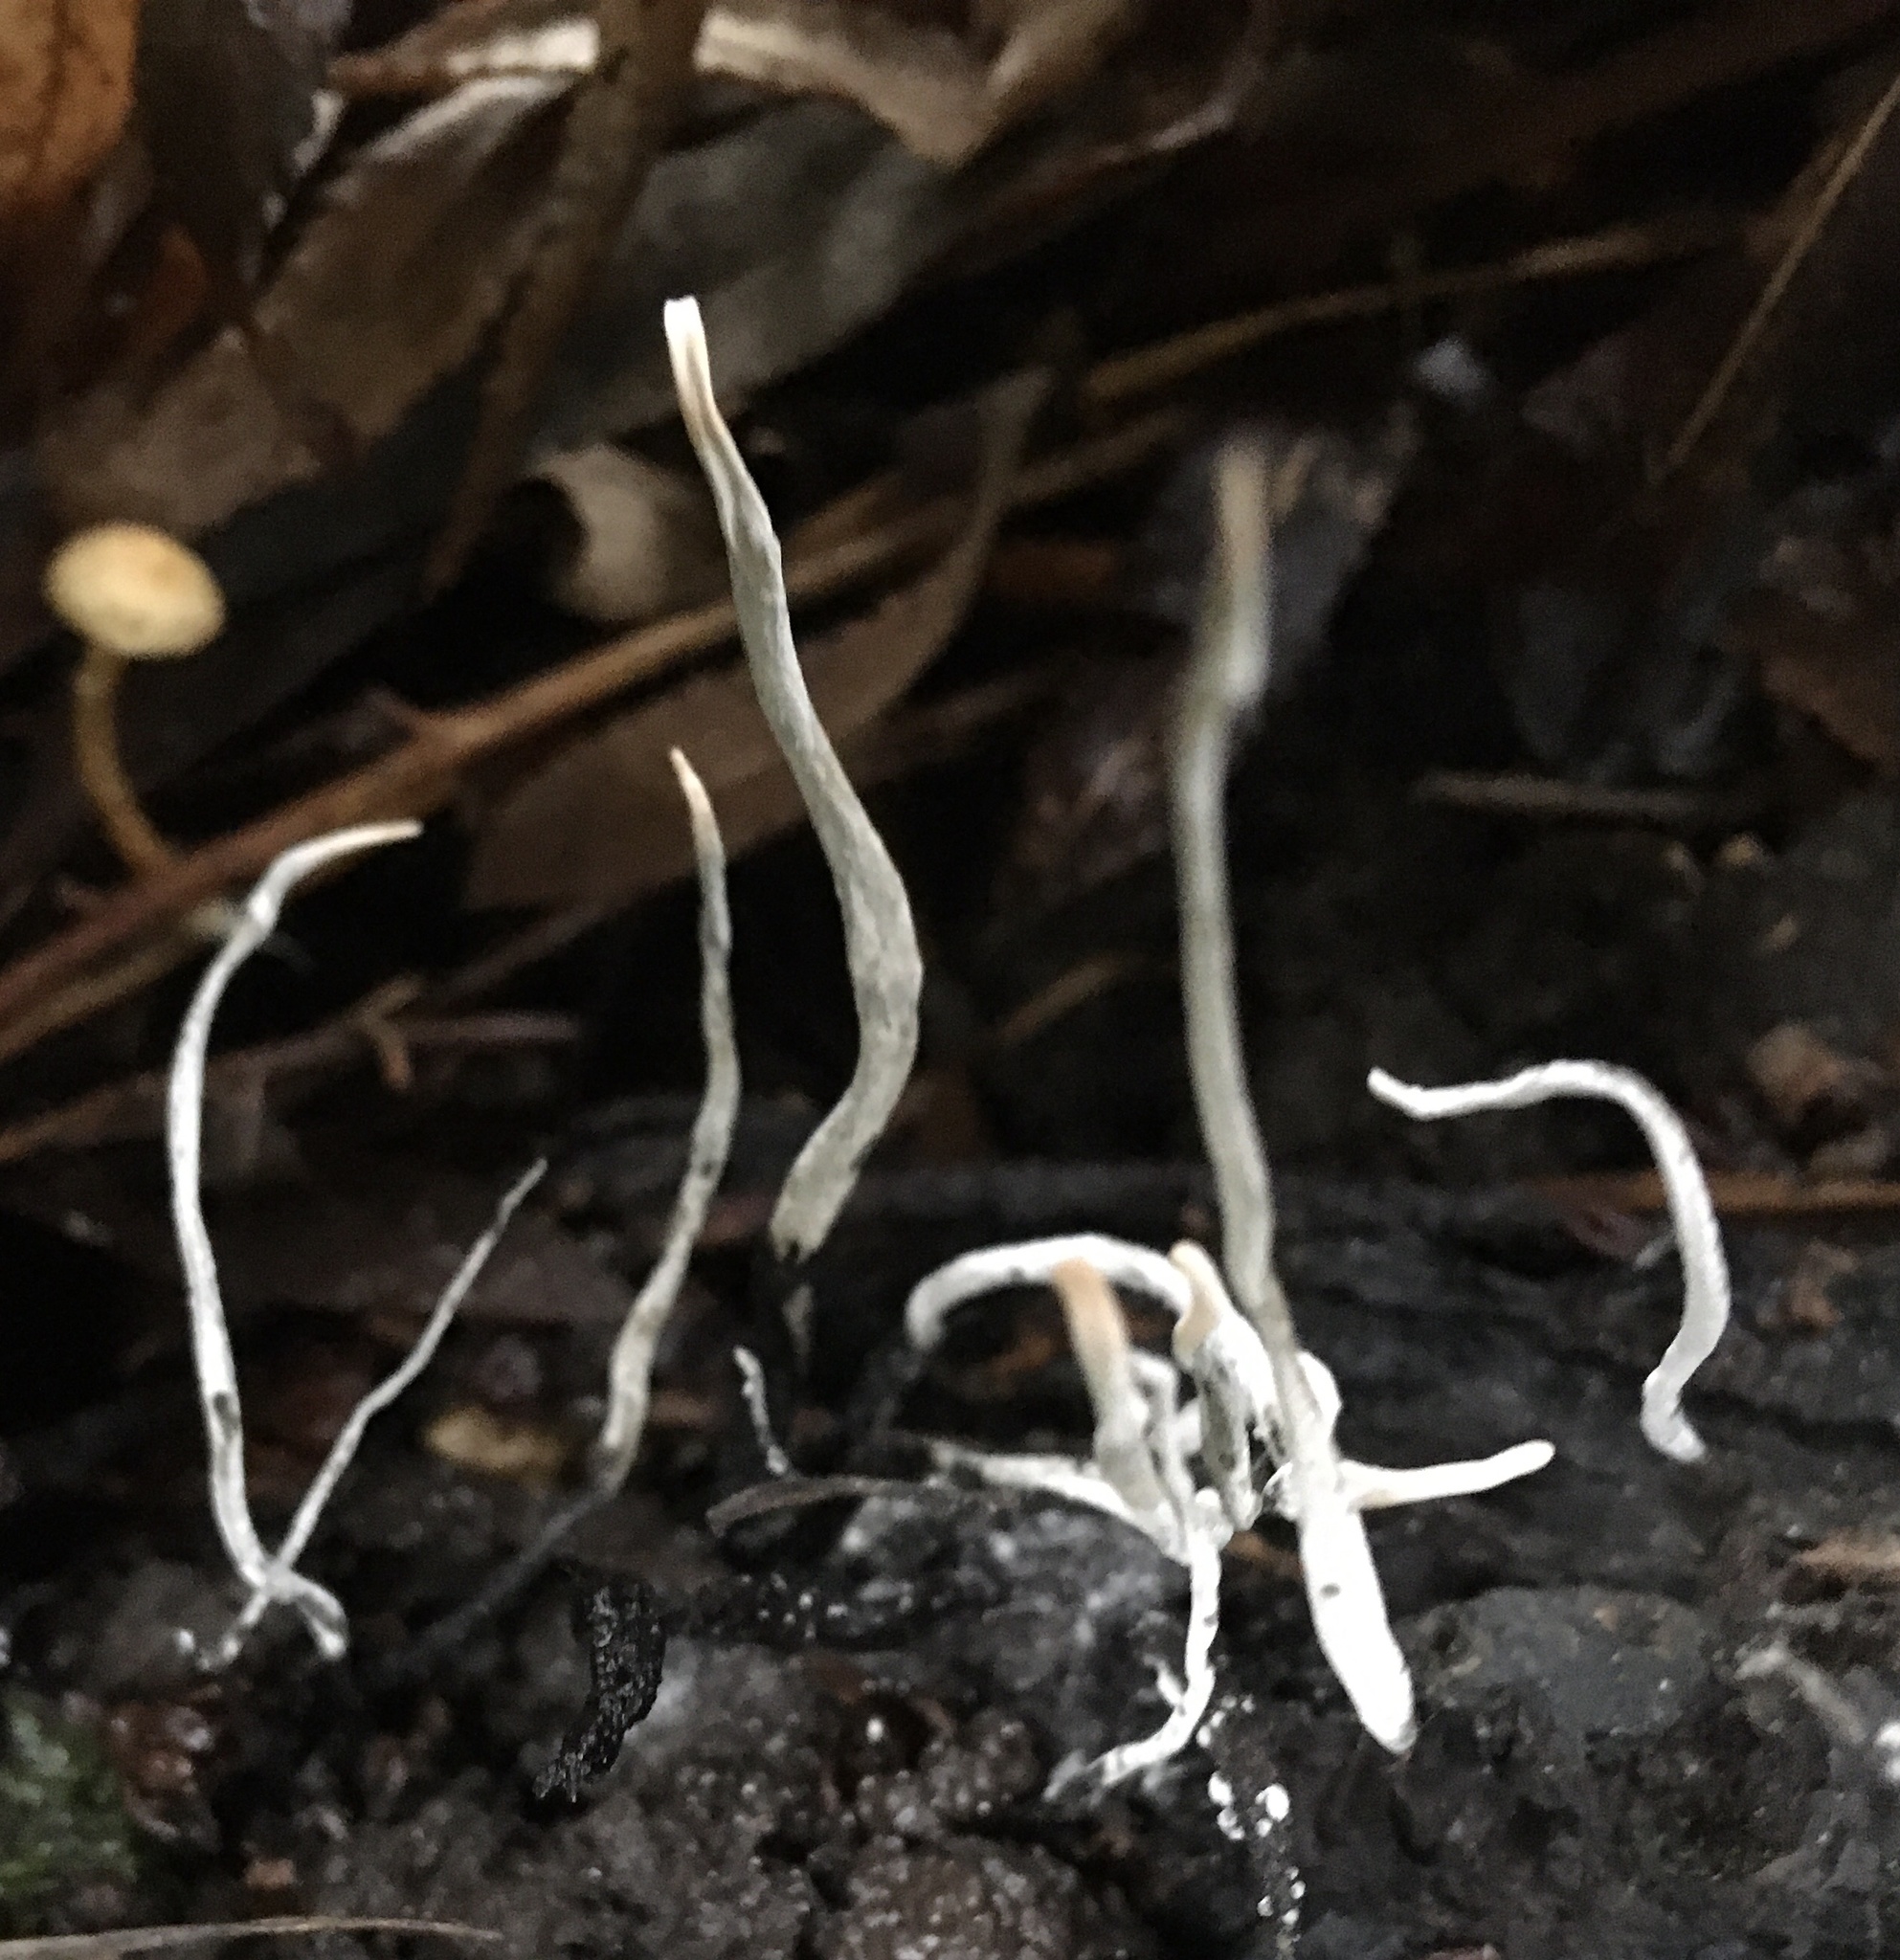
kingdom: Fungi
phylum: Ascomycota
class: Sordariomycetes
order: Xylariales
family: Xylariaceae
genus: Xylaria
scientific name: Xylaria hypoxylon
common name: Candle-snuff fungus
